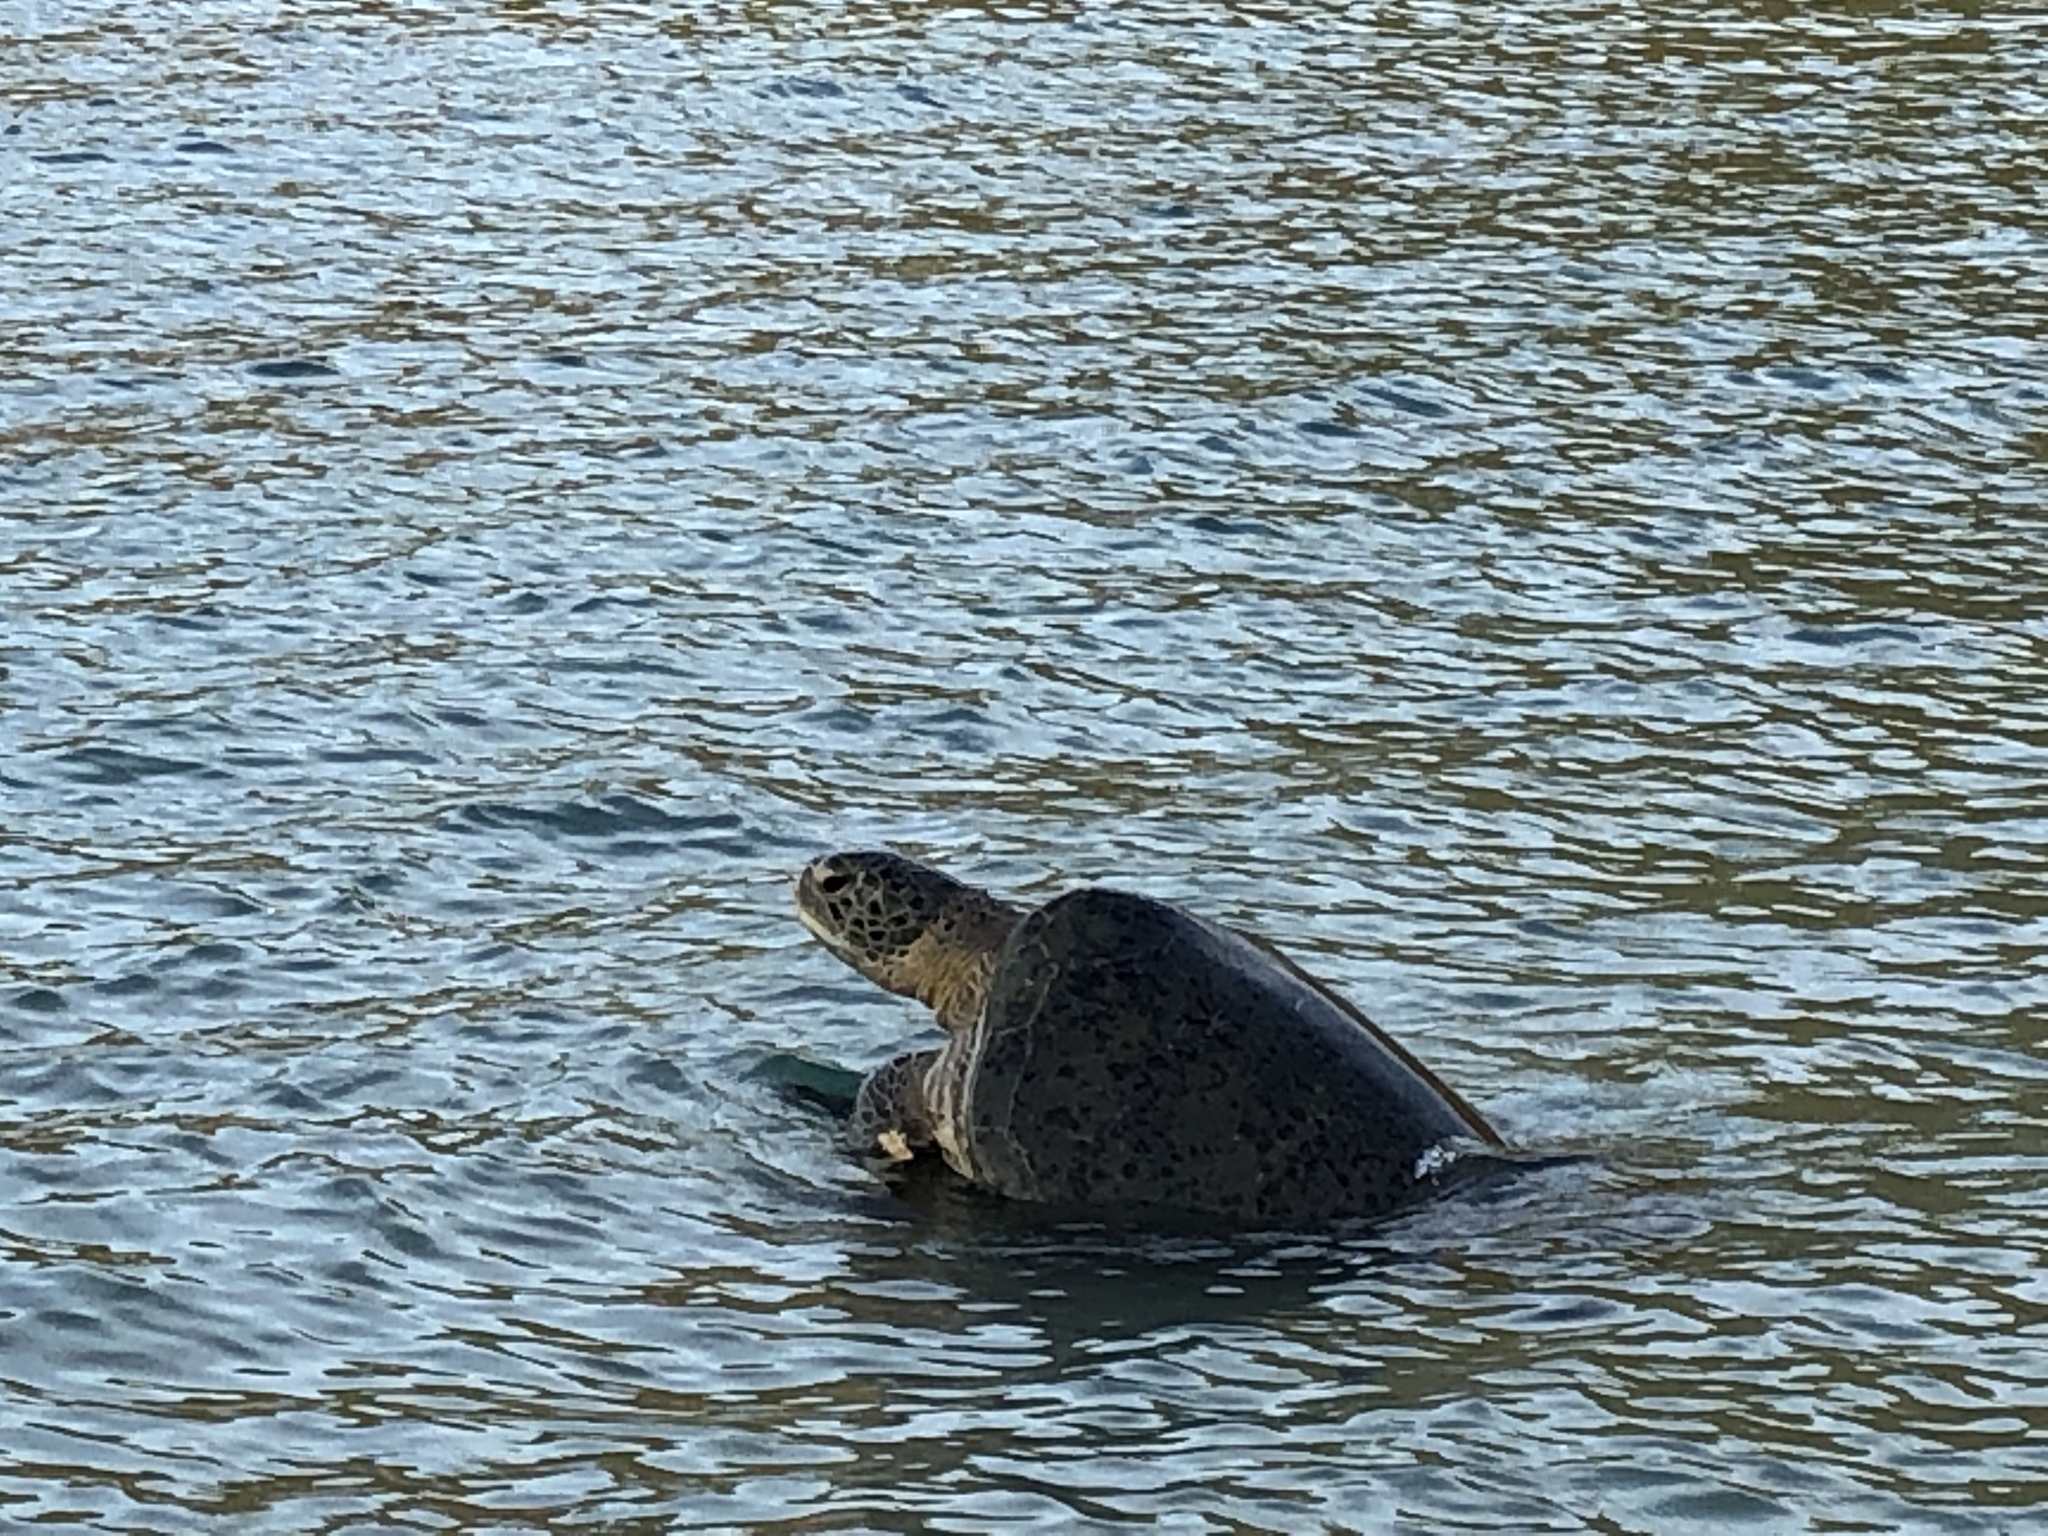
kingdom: Animalia
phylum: Chordata
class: Testudines
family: Cheloniidae
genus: Chelonia
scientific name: Chelonia mydas
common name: Green turtle
